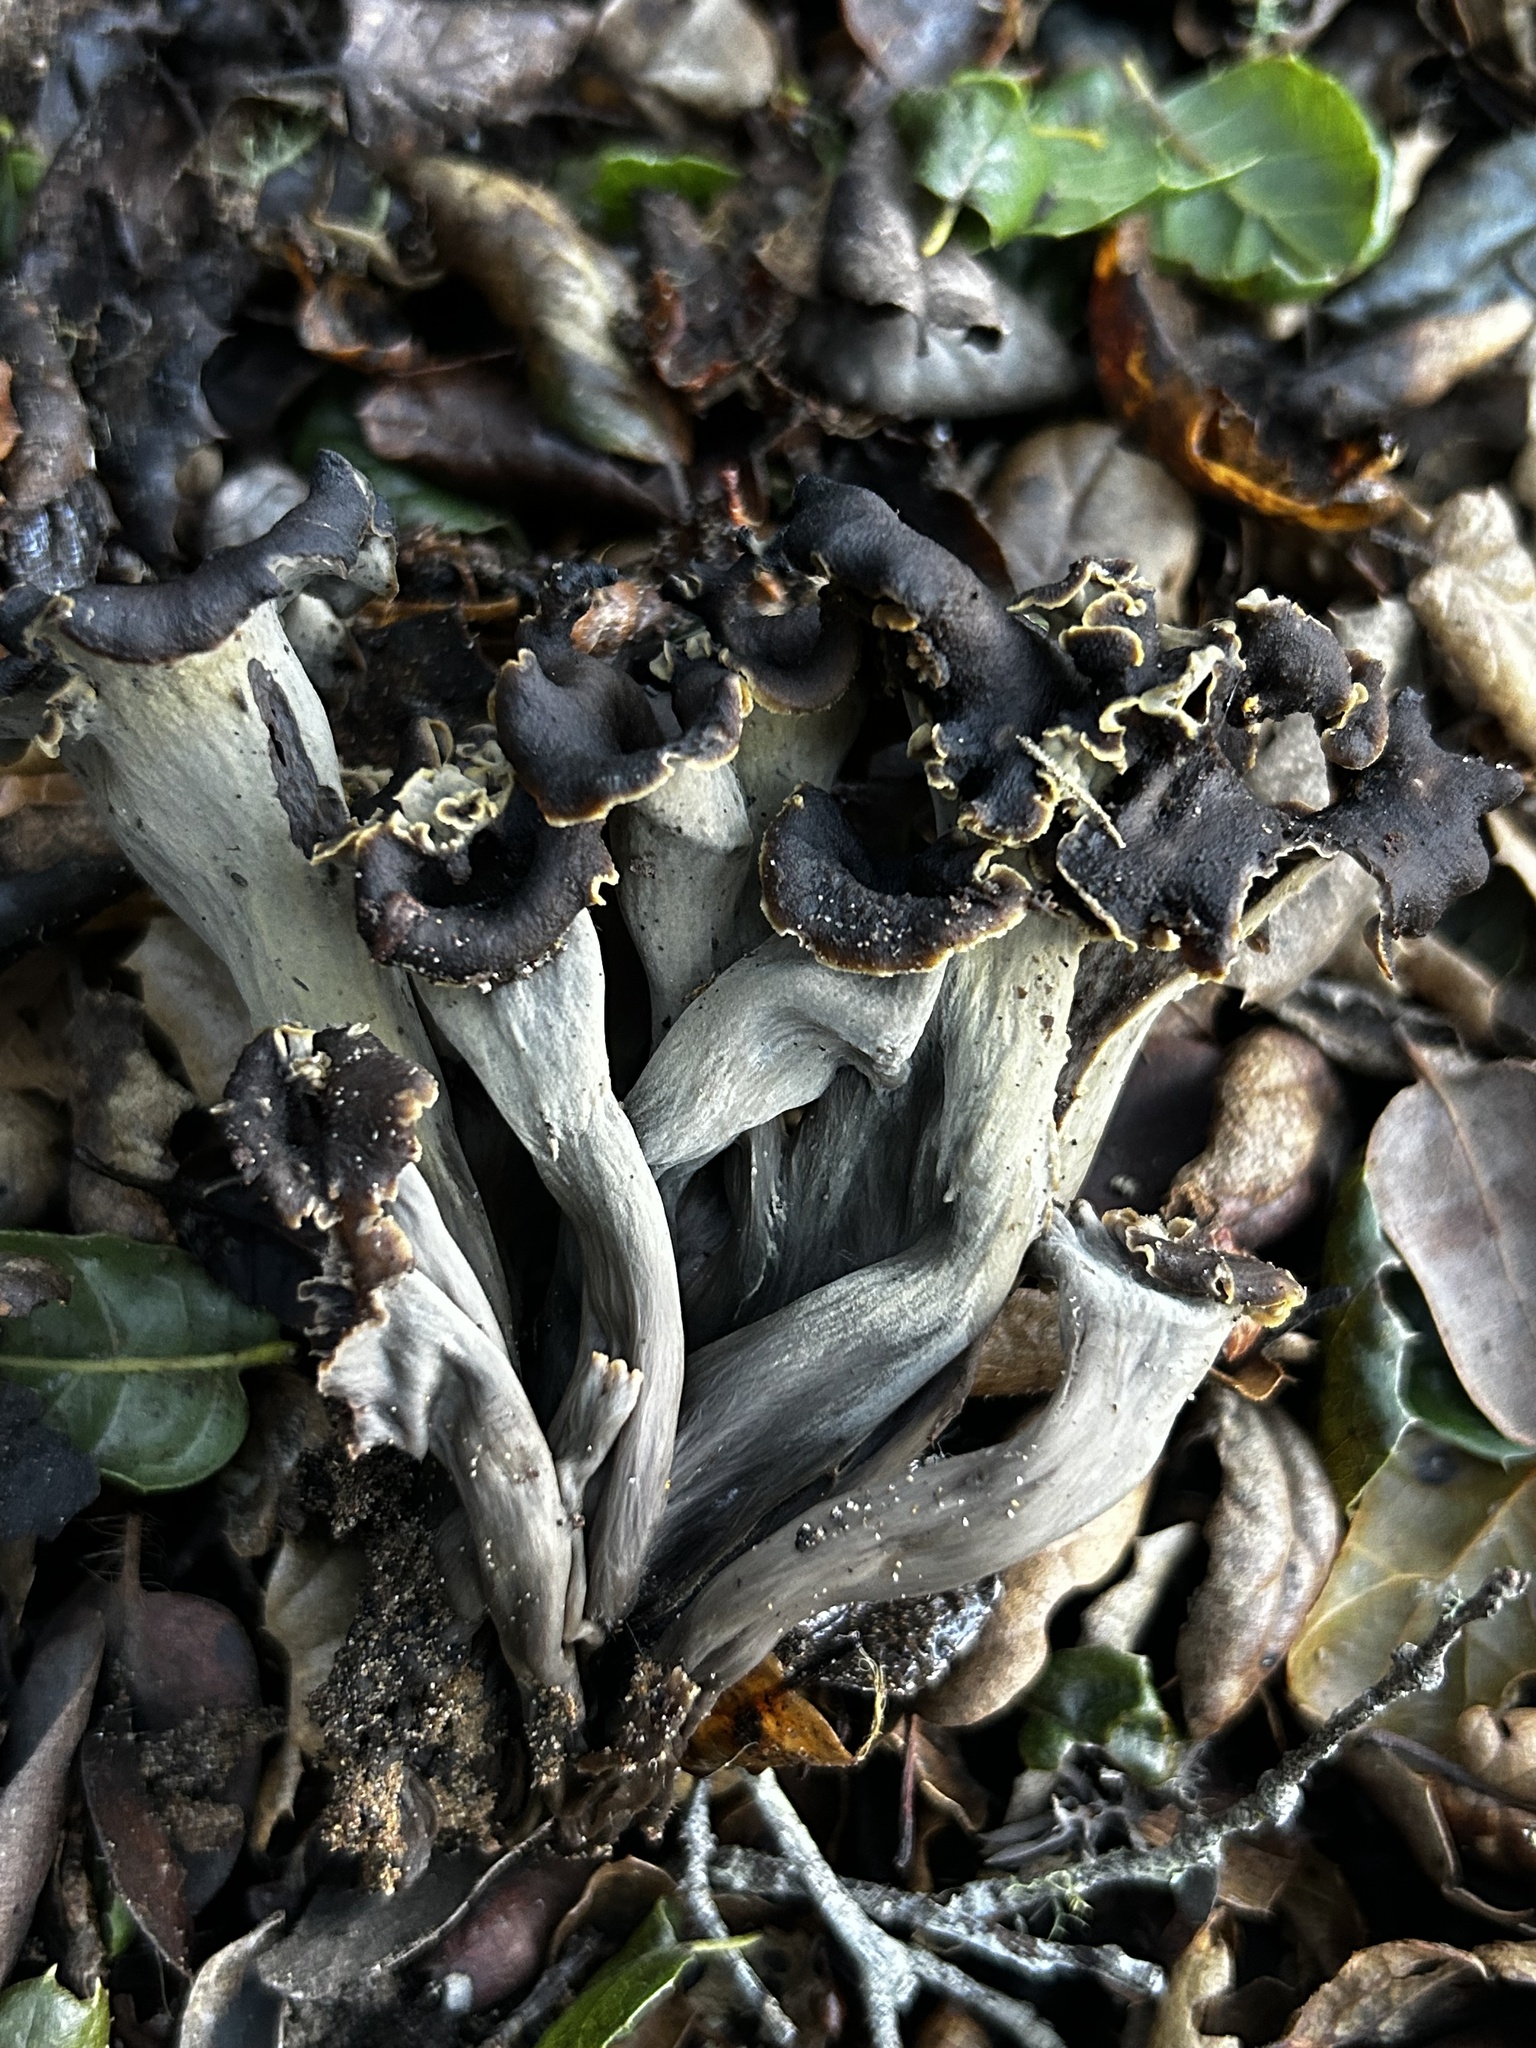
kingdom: Fungi
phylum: Basidiomycota
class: Agaricomycetes
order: Cantharellales
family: Hydnaceae
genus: Craterellus
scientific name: Craterellus calicornucopioides
